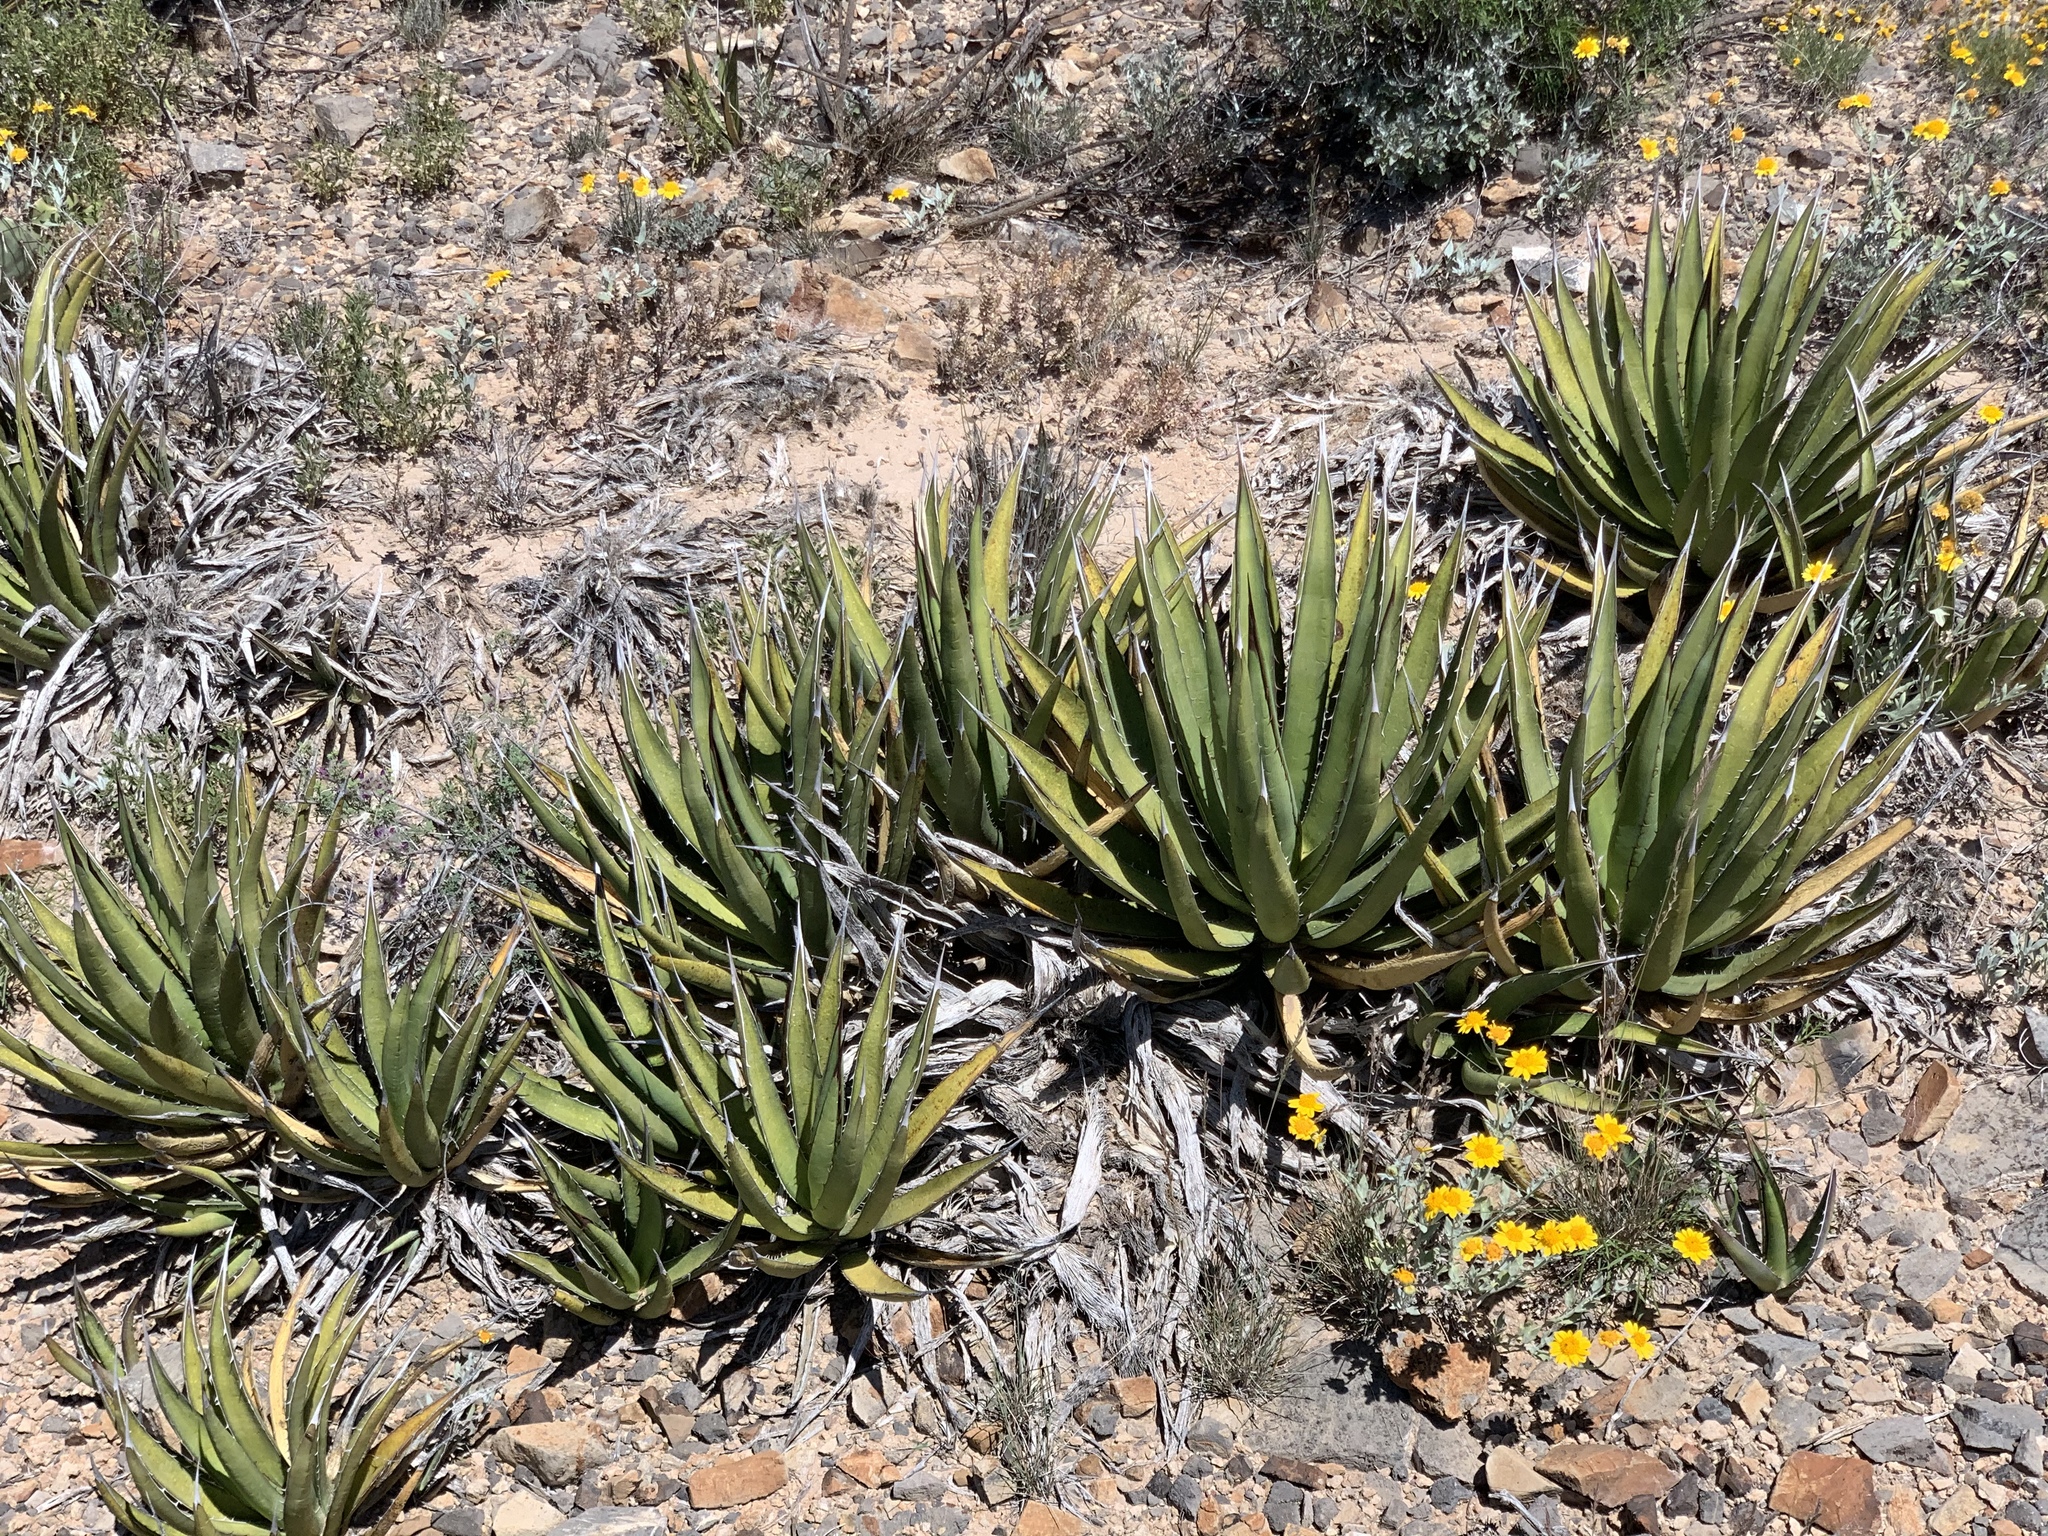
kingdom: Plantae
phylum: Tracheophyta
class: Liliopsida
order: Asparagales
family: Asparagaceae
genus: Agave
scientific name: Agave lechuguilla
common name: Lecheguilla agave
